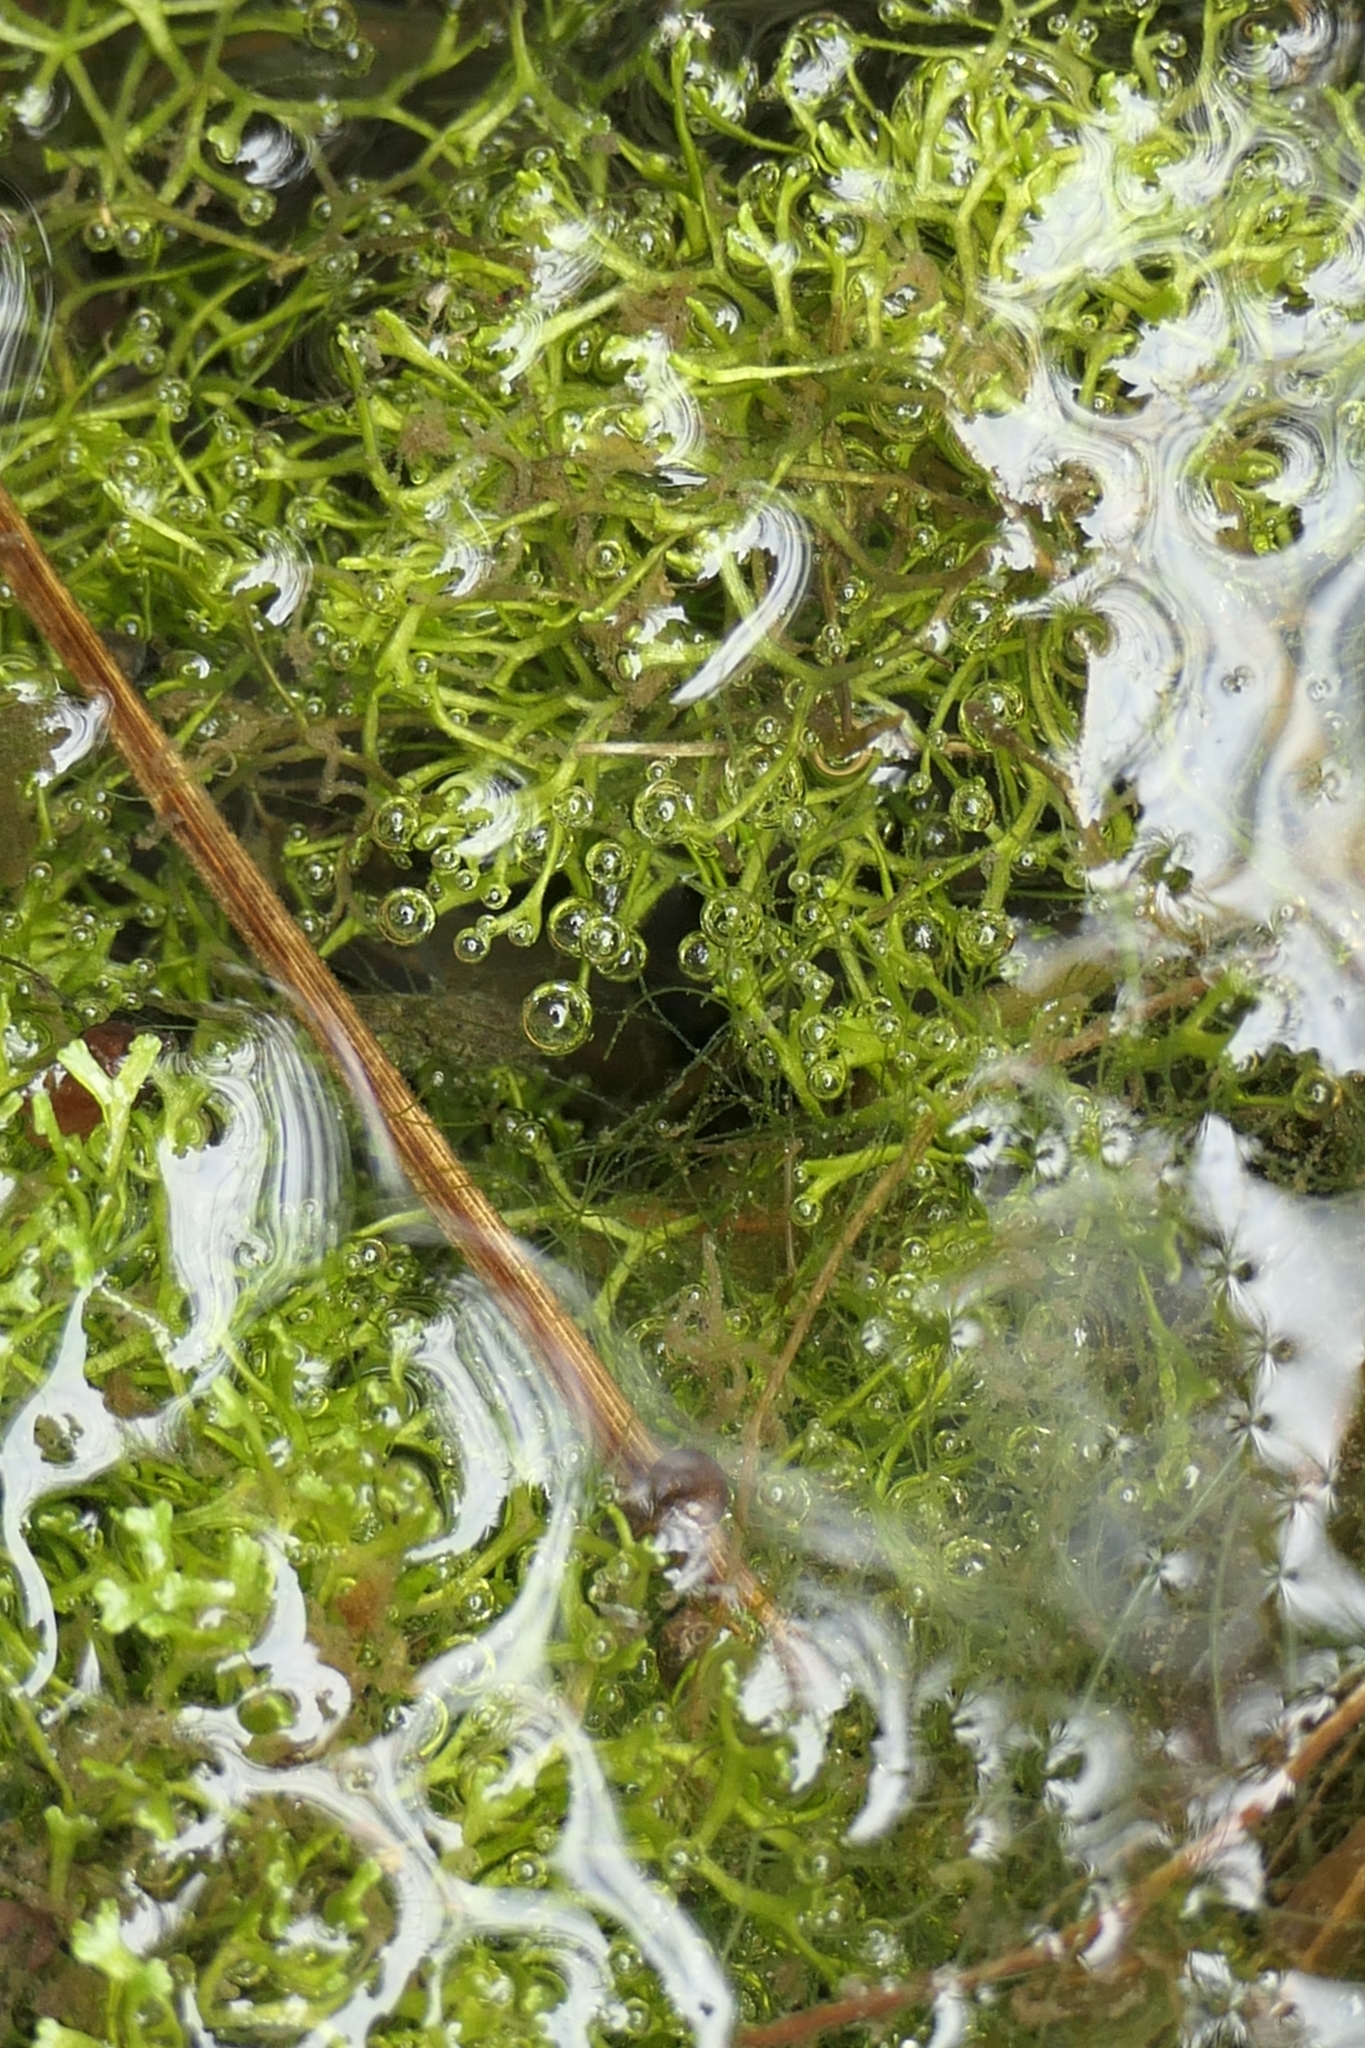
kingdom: Plantae
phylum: Marchantiophyta
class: Marchantiopsida
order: Marchantiales
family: Ricciaceae
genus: Riccia
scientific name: Riccia fluitans
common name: Floating crystalwort
